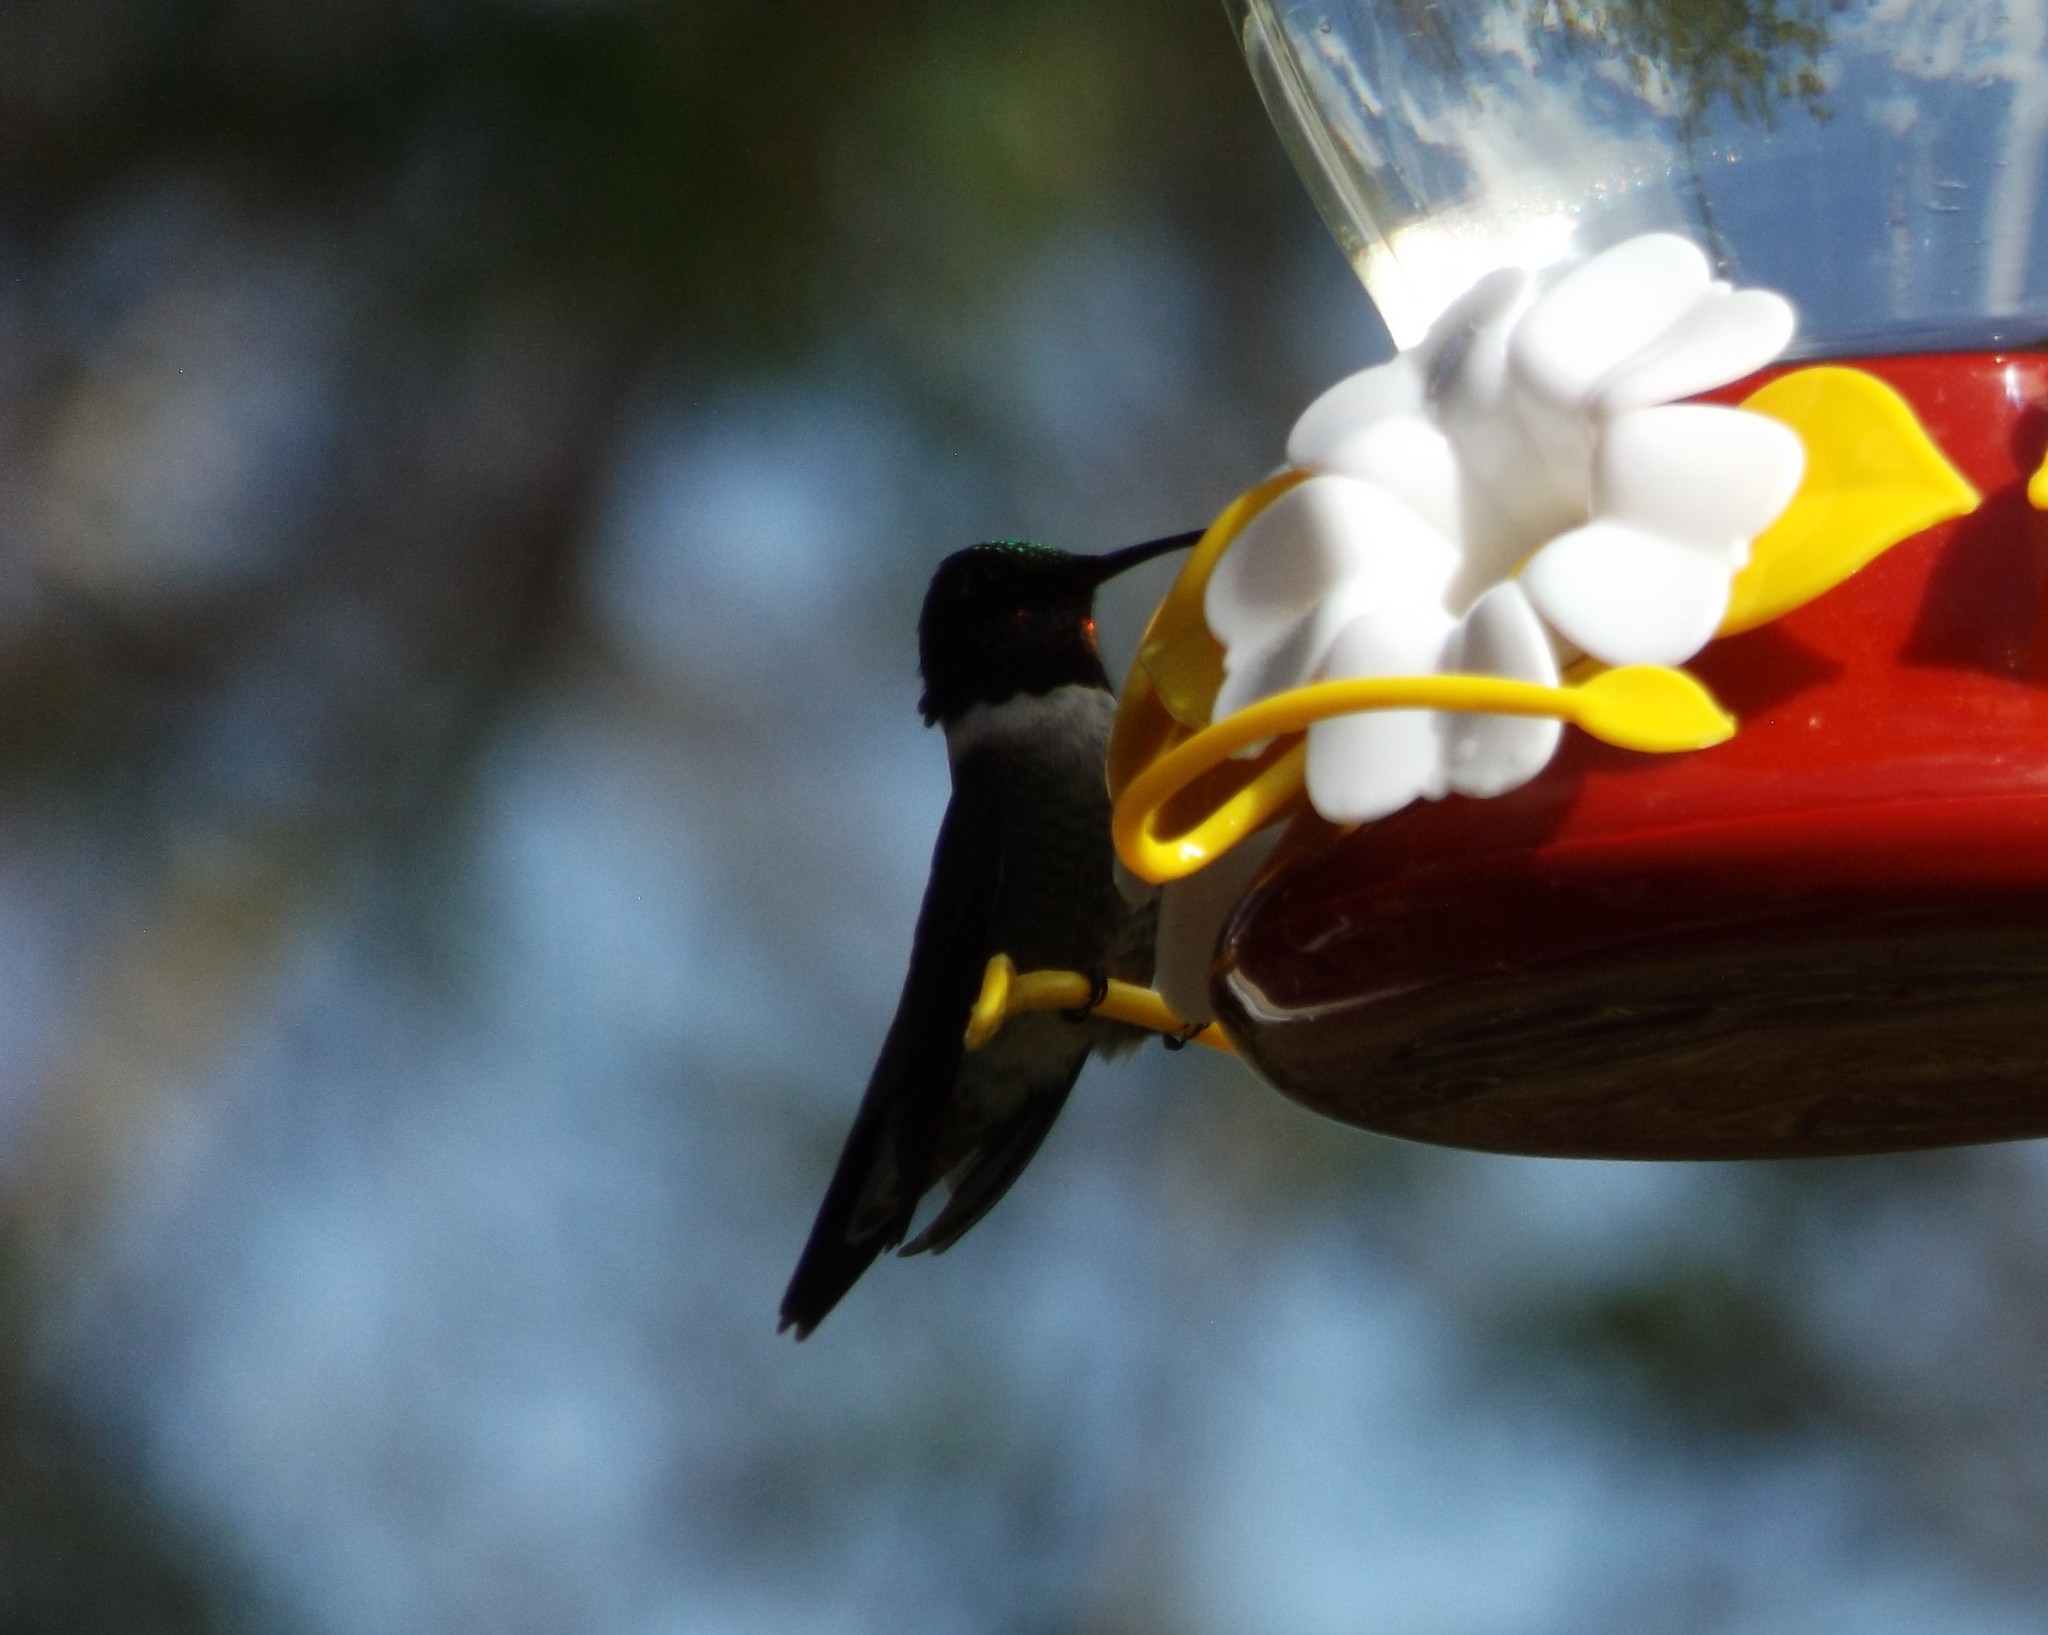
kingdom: Animalia
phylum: Chordata
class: Aves
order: Apodiformes
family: Trochilidae
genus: Archilochus
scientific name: Archilochus colubris
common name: Ruby-throated hummingbird
